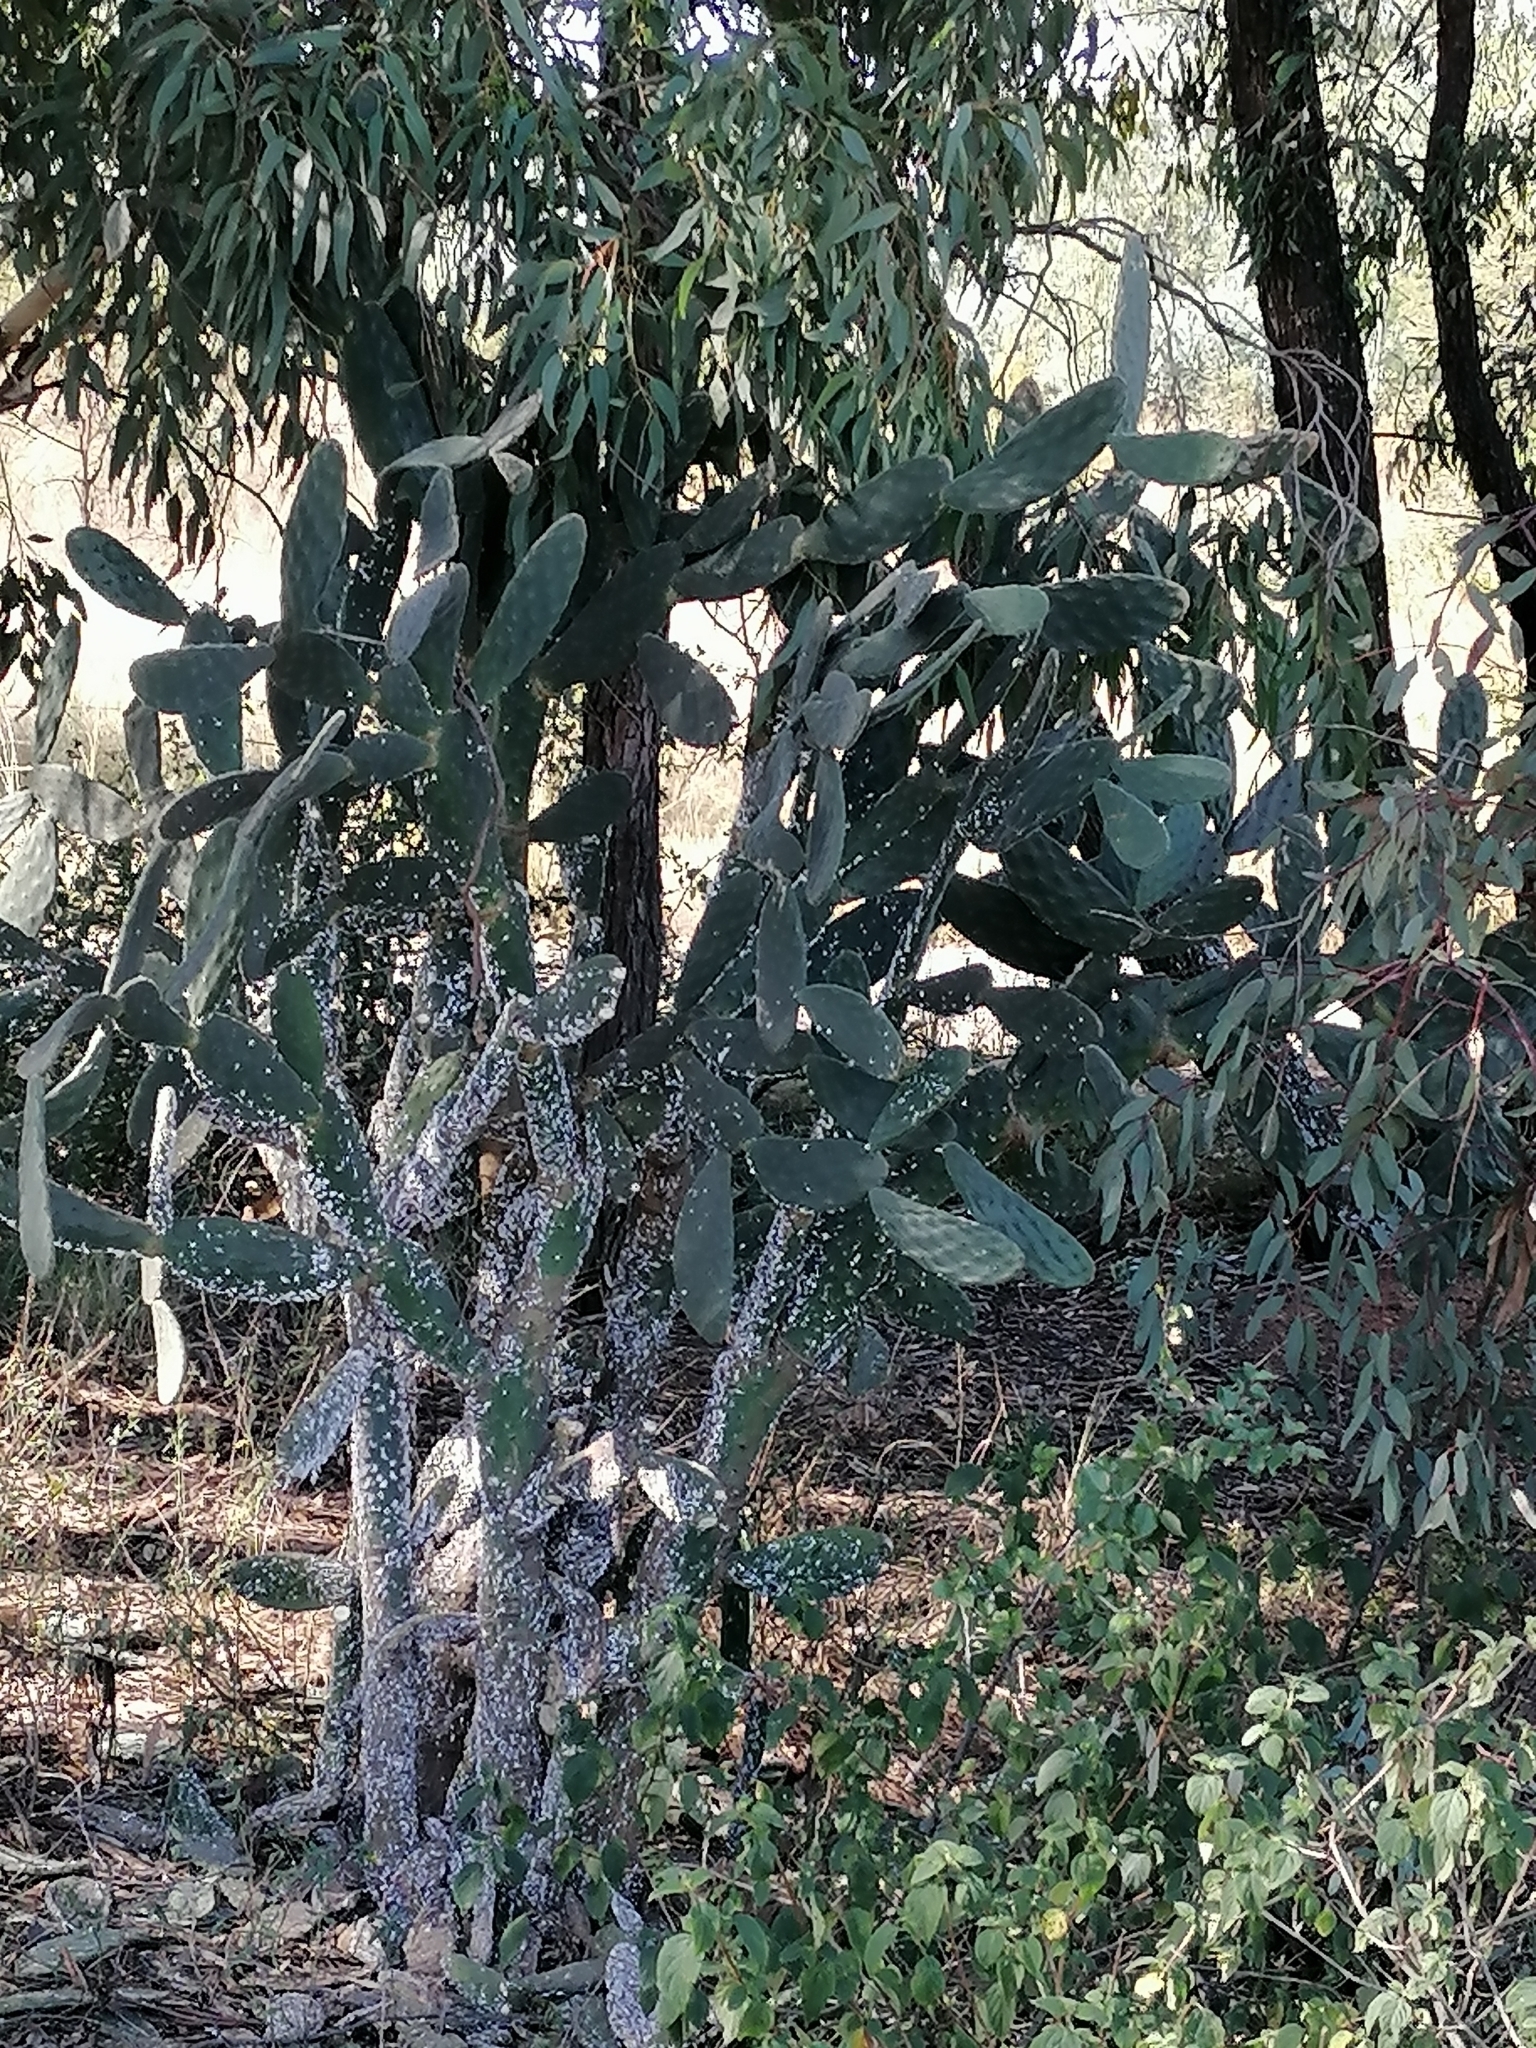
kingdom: Plantae
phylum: Tracheophyta
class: Magnoliopsida
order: Caryophyllales
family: Cactaceae
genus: Opuntia
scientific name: Opuntia tomentosa
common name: Woollyjoint pricklypear
